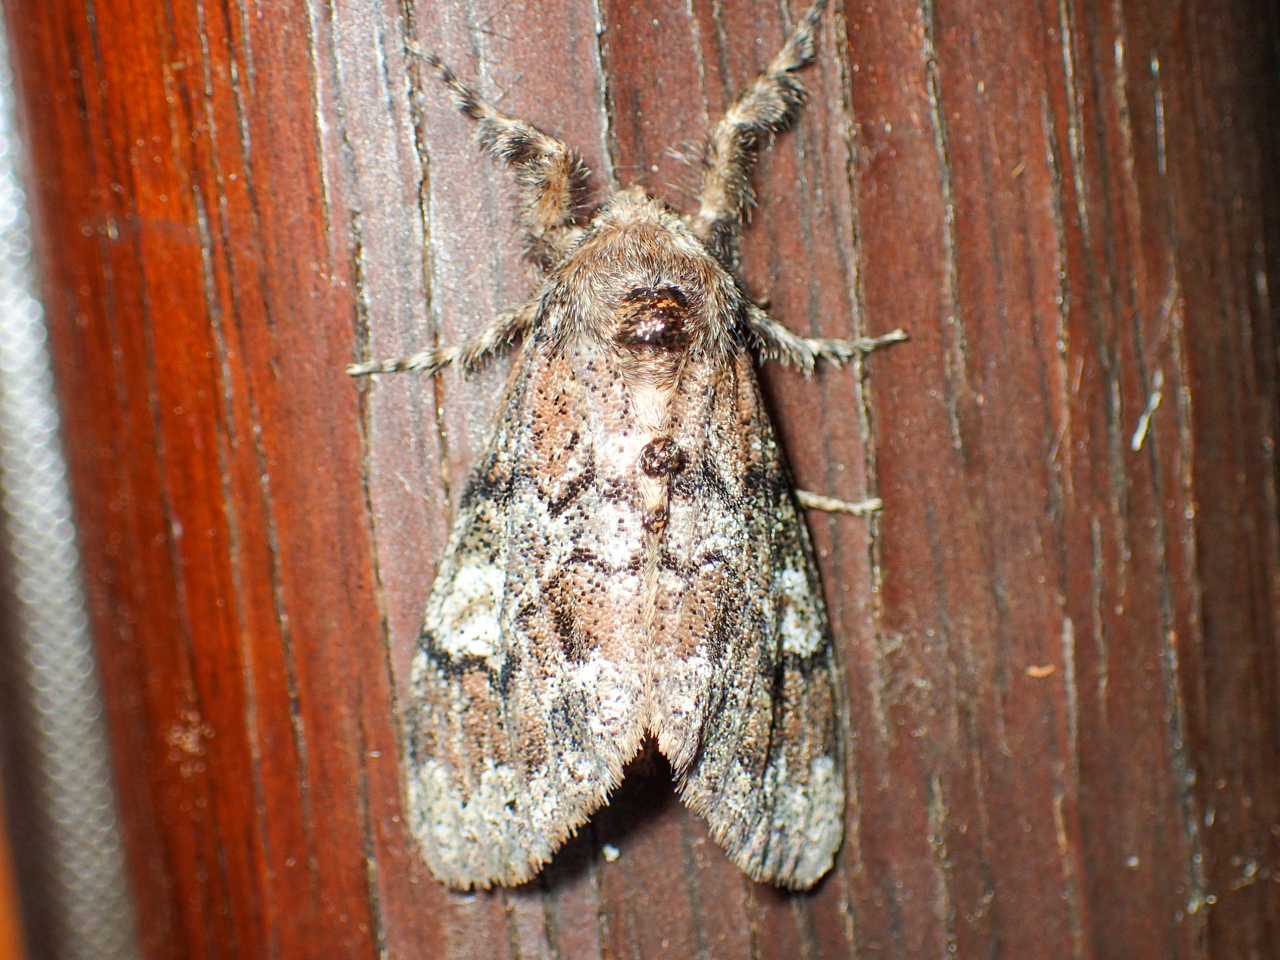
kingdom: Animalia
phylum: Arthropoda
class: Insecta
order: Lepidoptera
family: Erebidae
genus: Dasychira
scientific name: Dasychira manto
